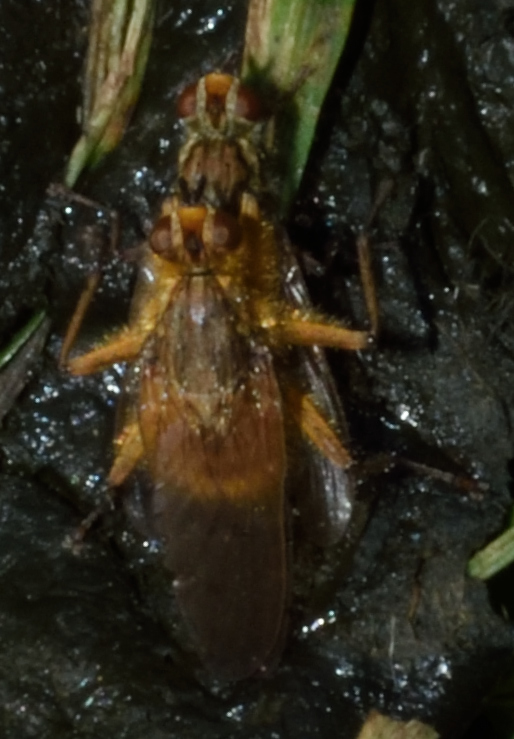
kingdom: Animalia
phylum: Arthropoda
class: Insecta
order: Diptera
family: Scathophagidae
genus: Scathophaga
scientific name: Scathophaga stercoraria
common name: Yellow dung fly
